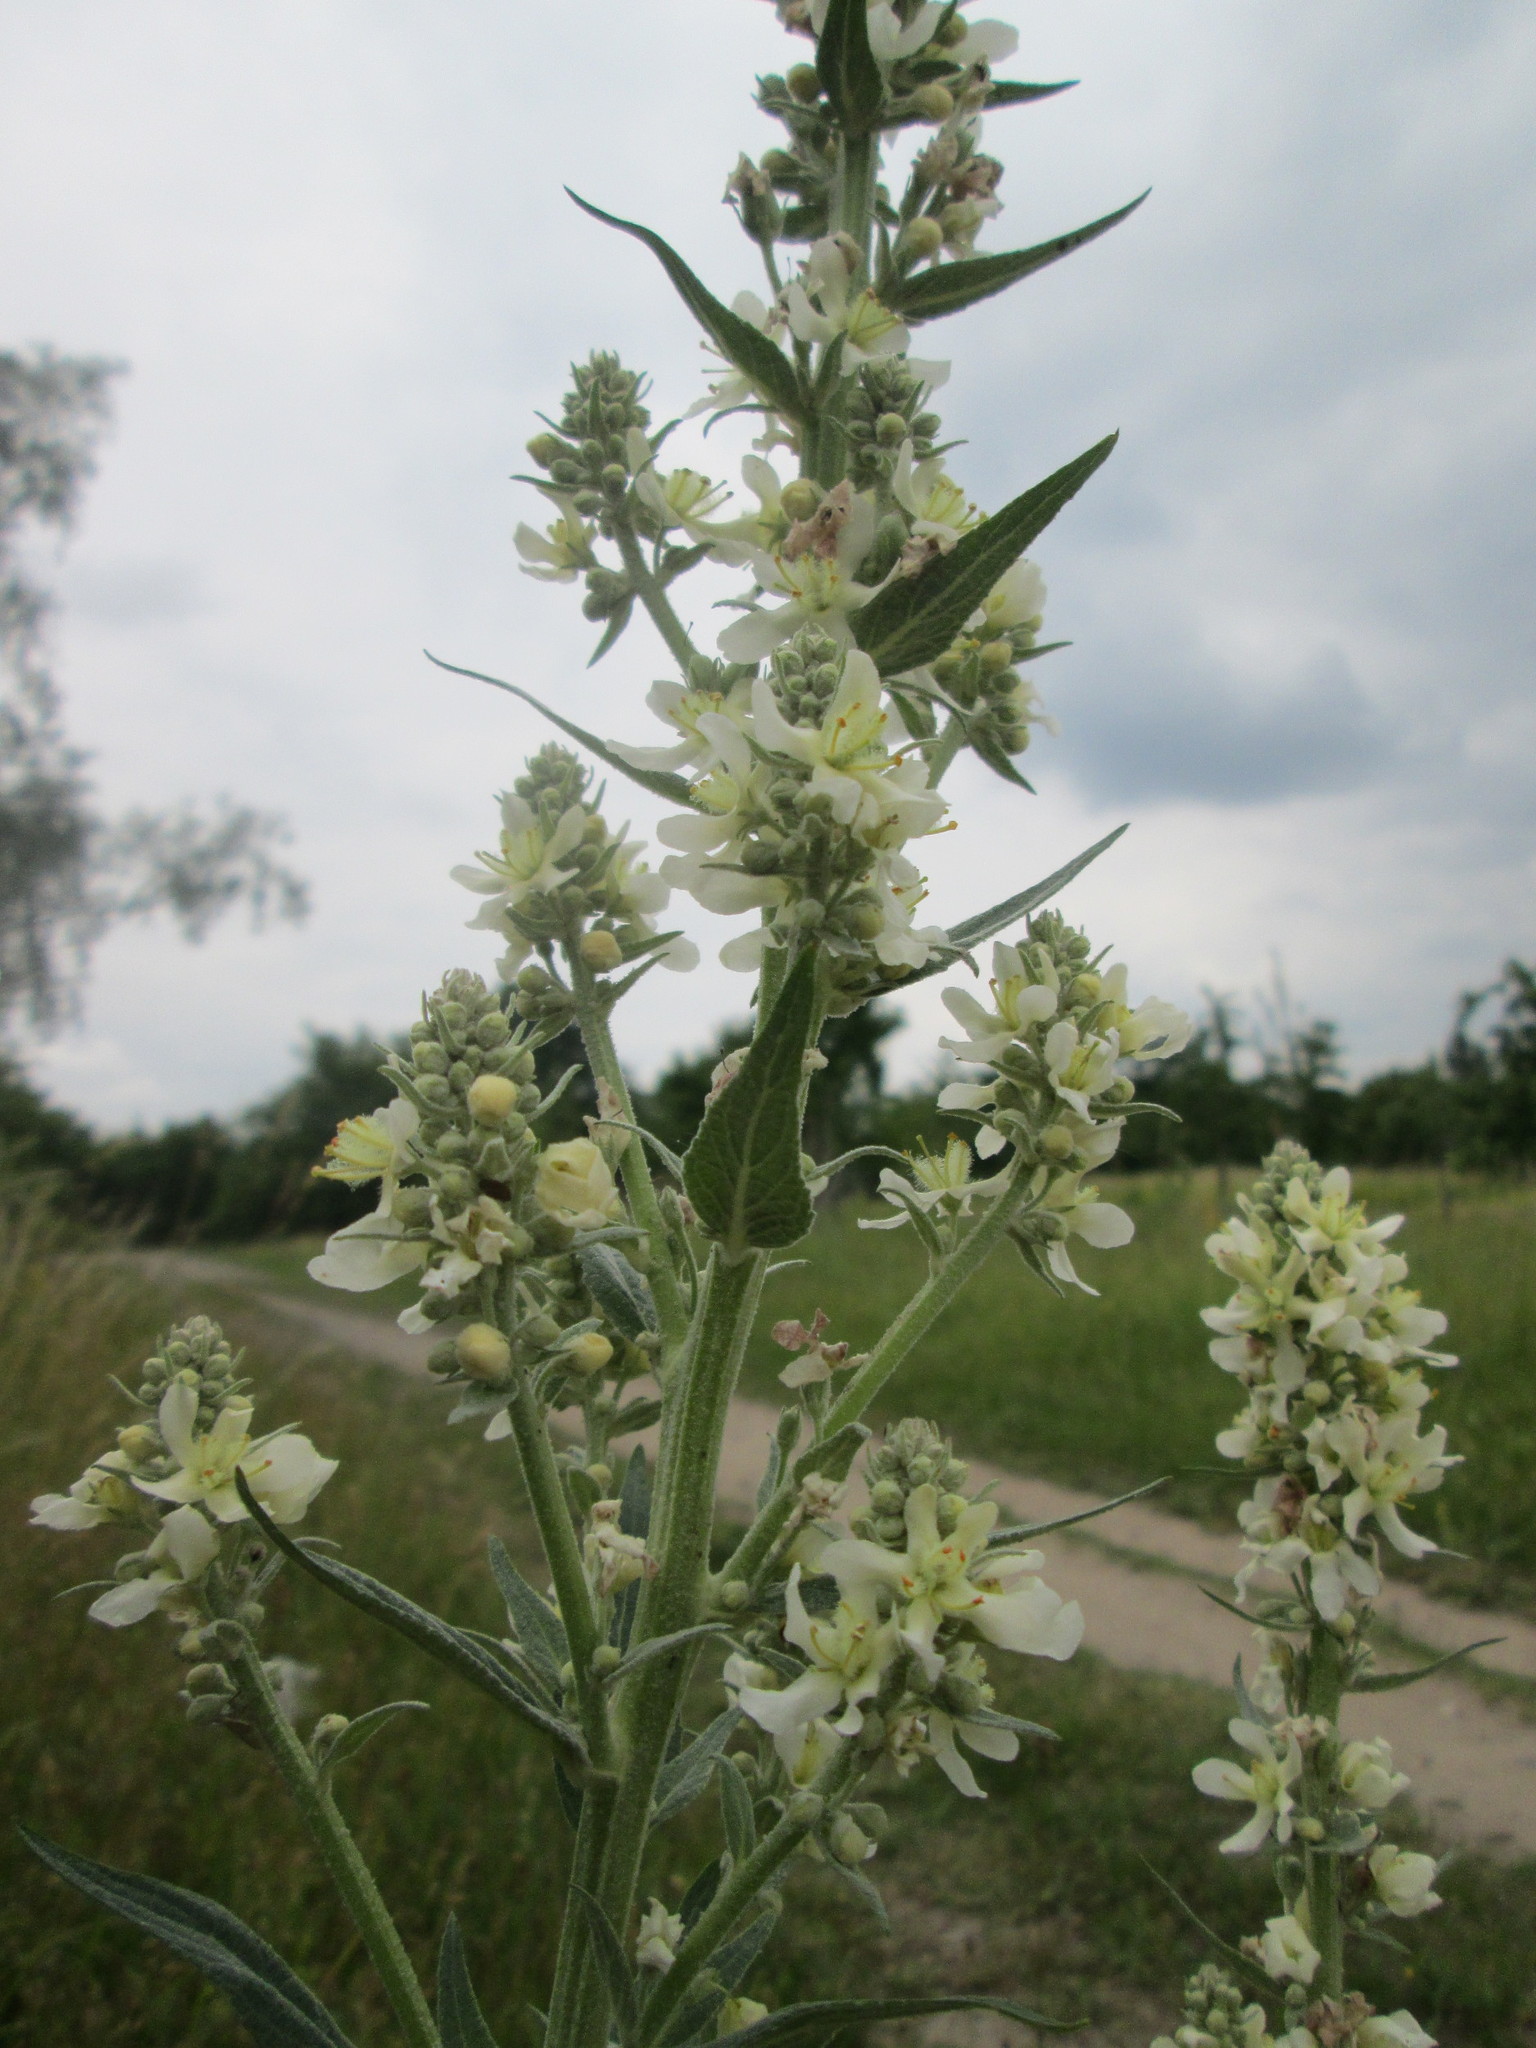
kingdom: Plantae
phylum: Tracheophyta
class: Magnoliopsida
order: Lamiales
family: Scrophulariaceae
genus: Verbascum
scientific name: Verbascum lychnitis
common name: White mullein
